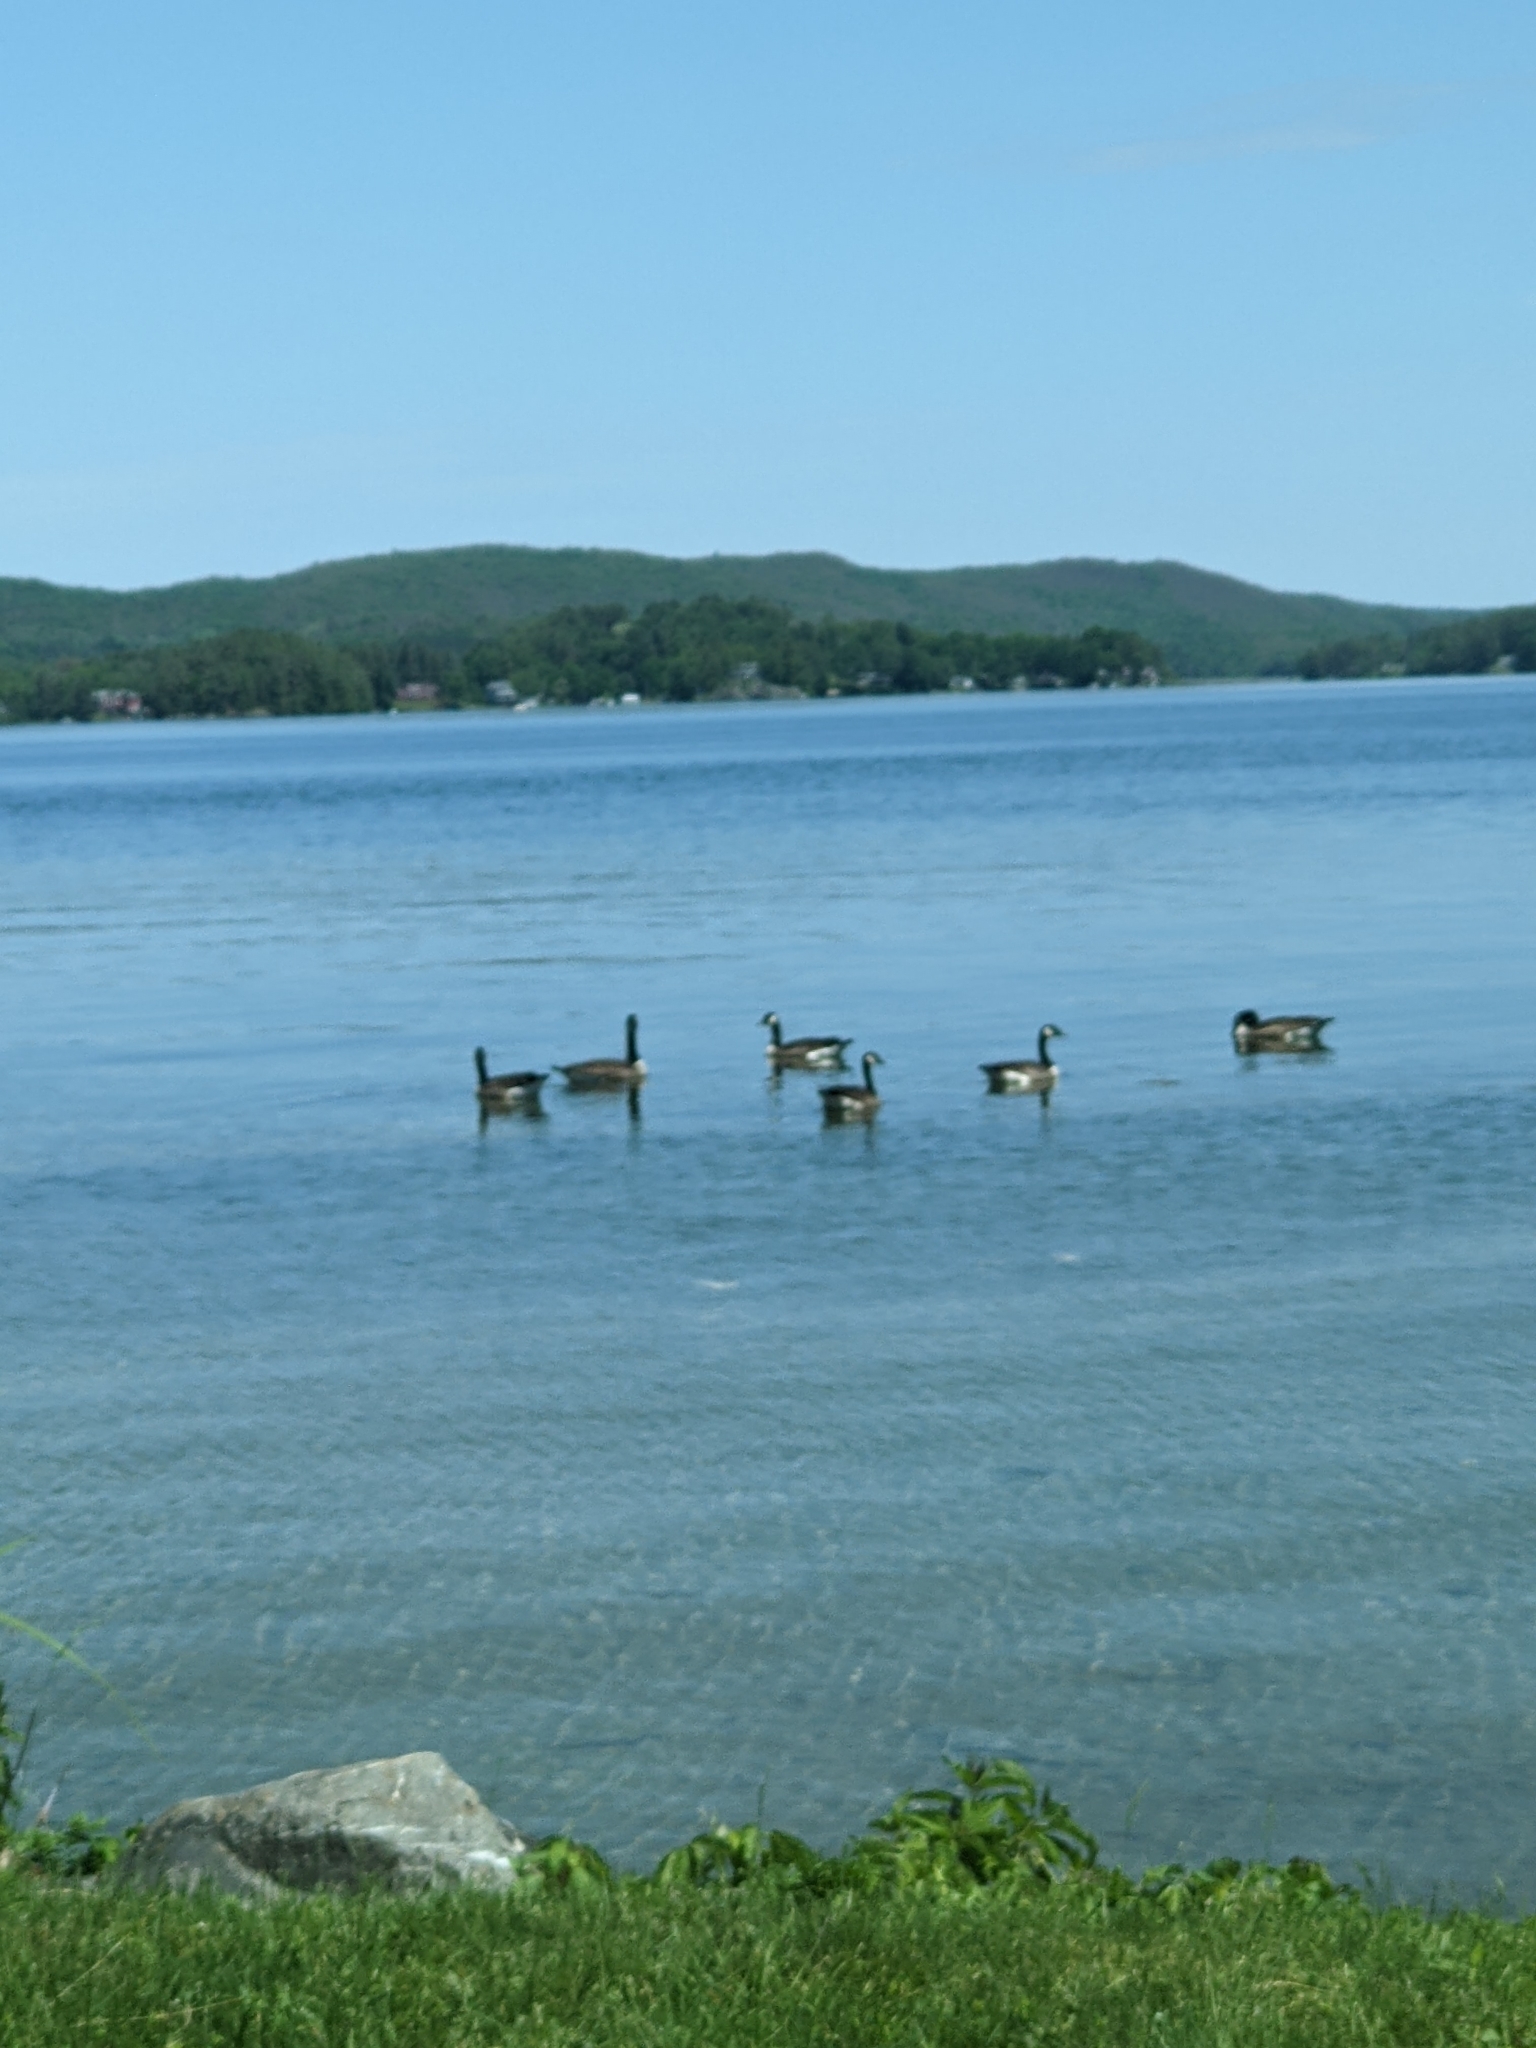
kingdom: Animalia
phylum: Chordata
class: Aves
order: Anseriformes
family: Anatidae
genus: Branta
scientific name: Branta canadensis
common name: Canada goose
